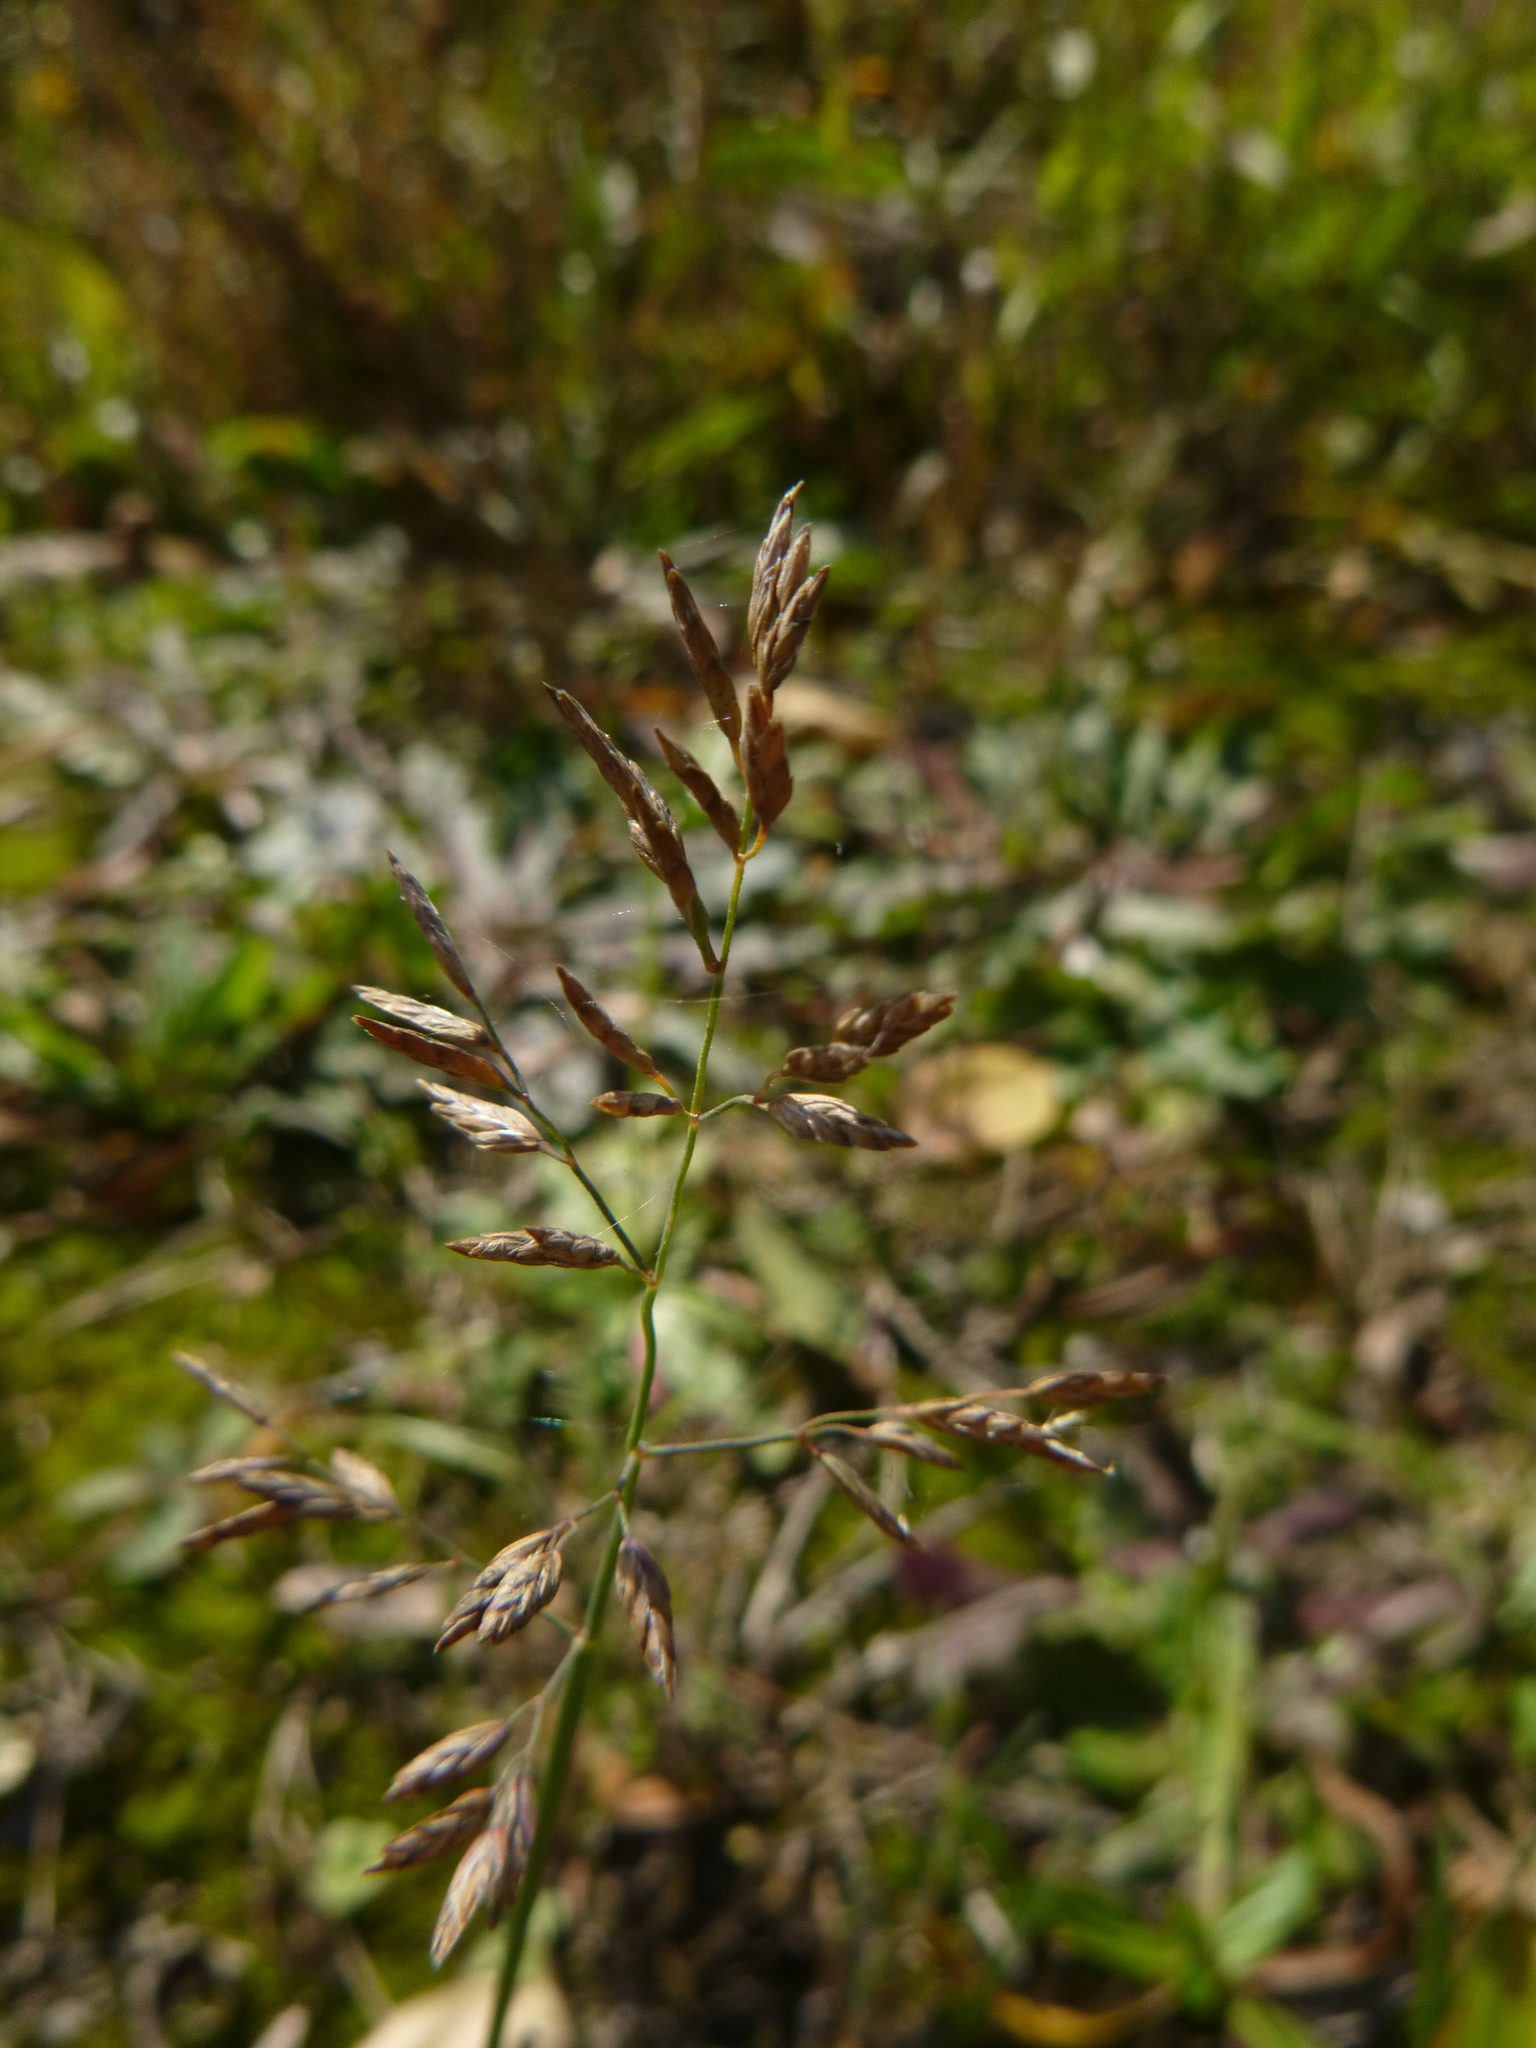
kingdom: Plantae
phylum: Tracheophyta
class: Liliopsida
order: Poales
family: Poaceae
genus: Poa
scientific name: Poa compressa
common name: Canada bluegrass
